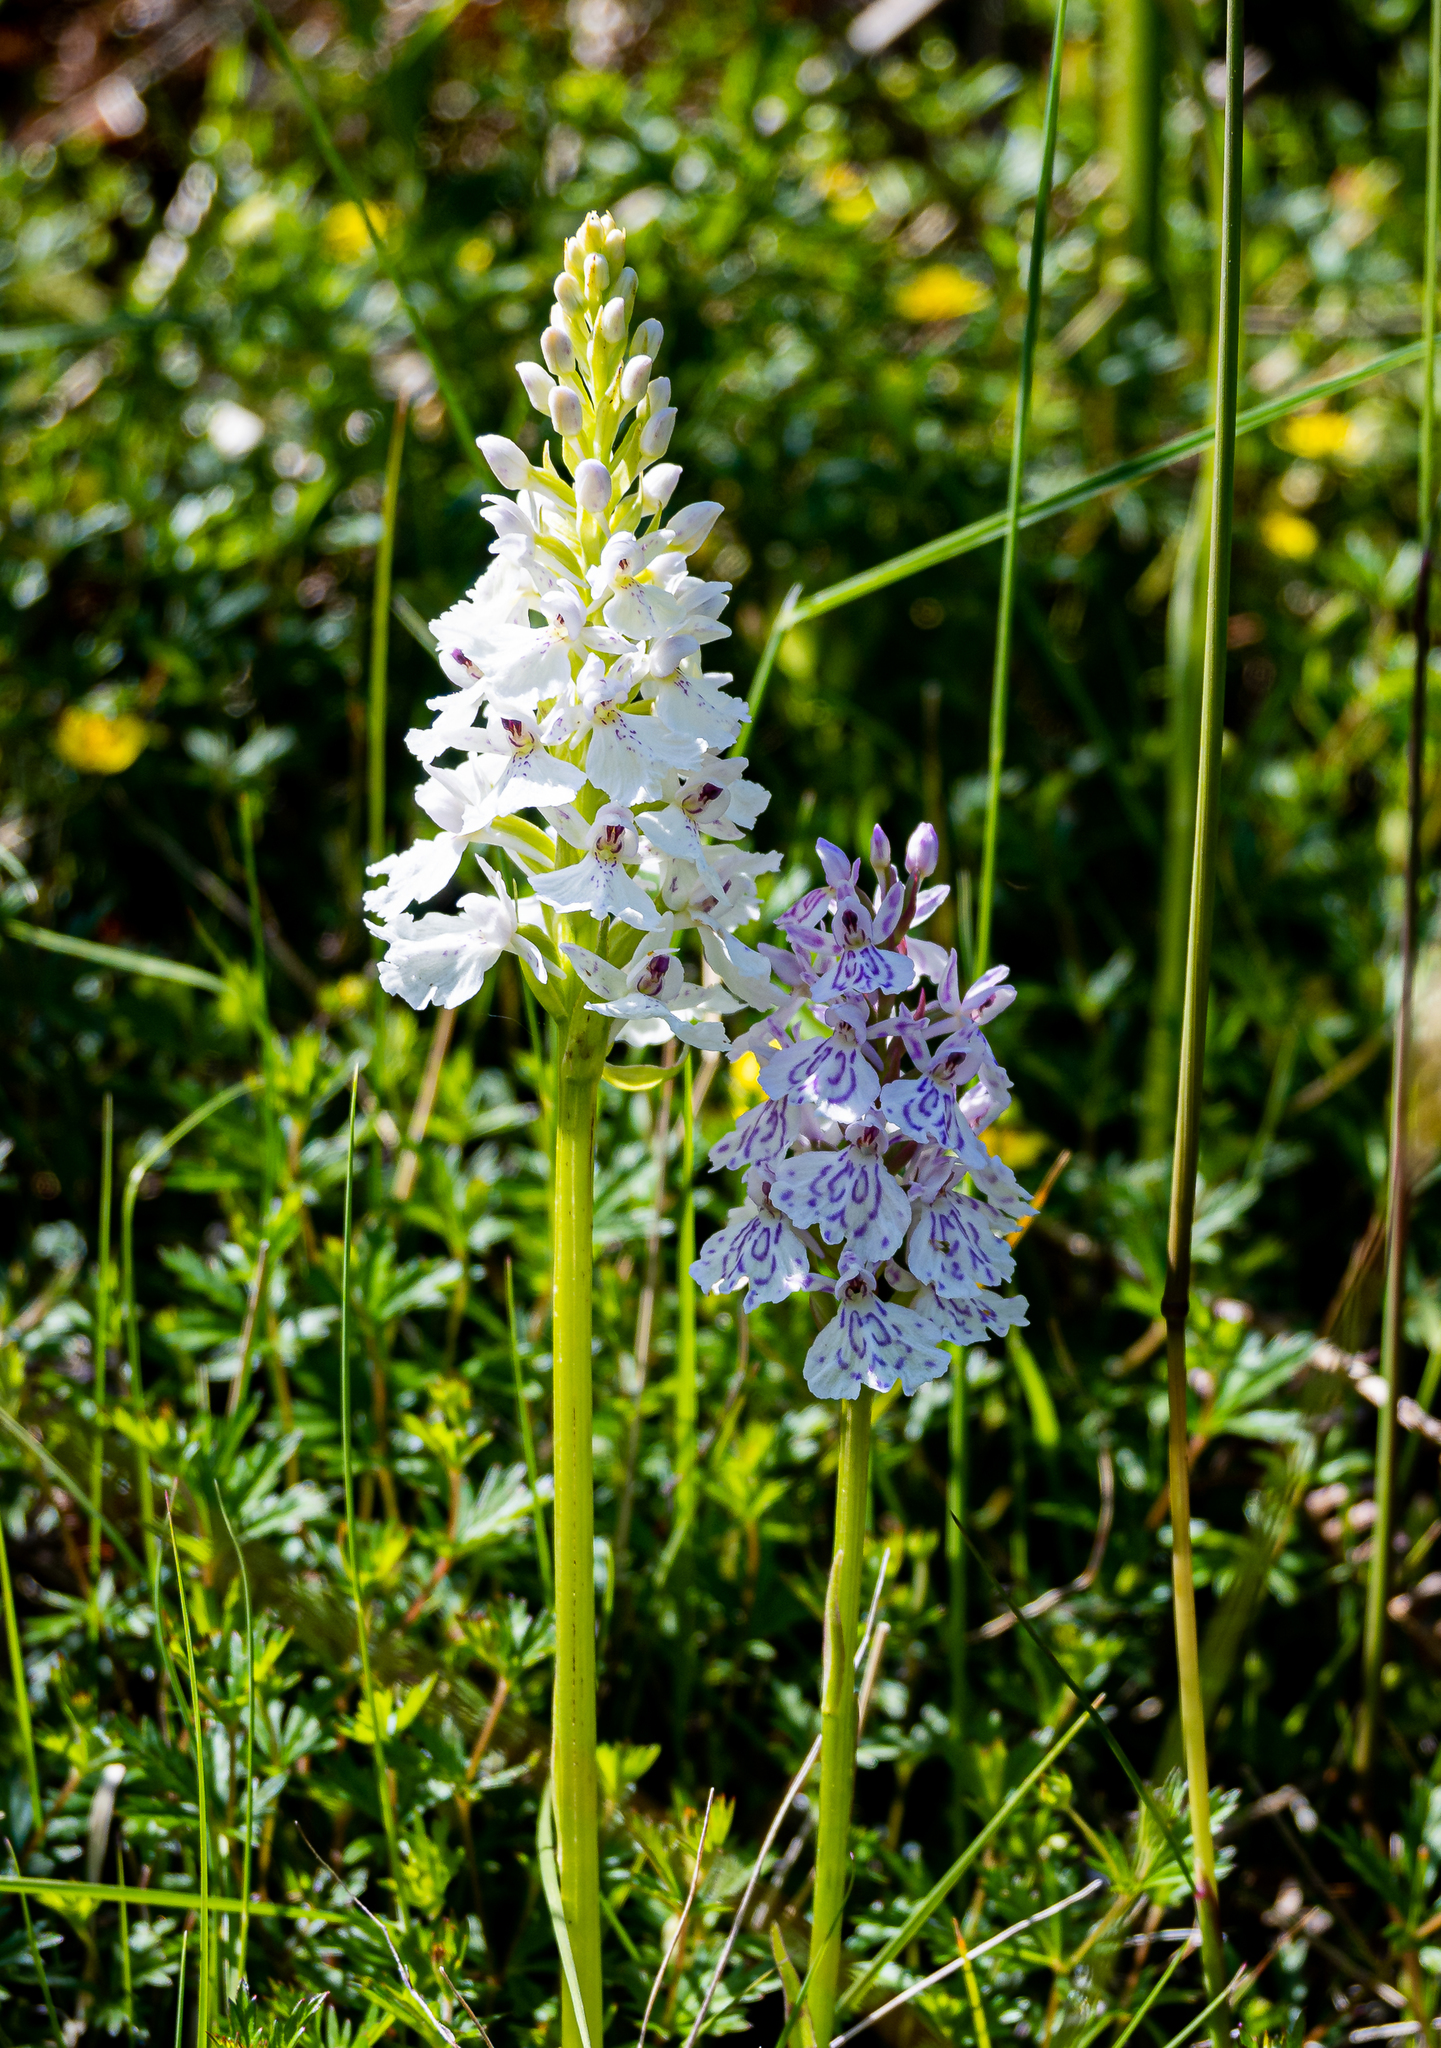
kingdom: Plantae
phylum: Tracheophyta
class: Liliopsida
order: Asparagales
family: Orchidaceae
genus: Dactylorhiza
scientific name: Dactylorhiza maculata
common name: Heath spotted-orchid
